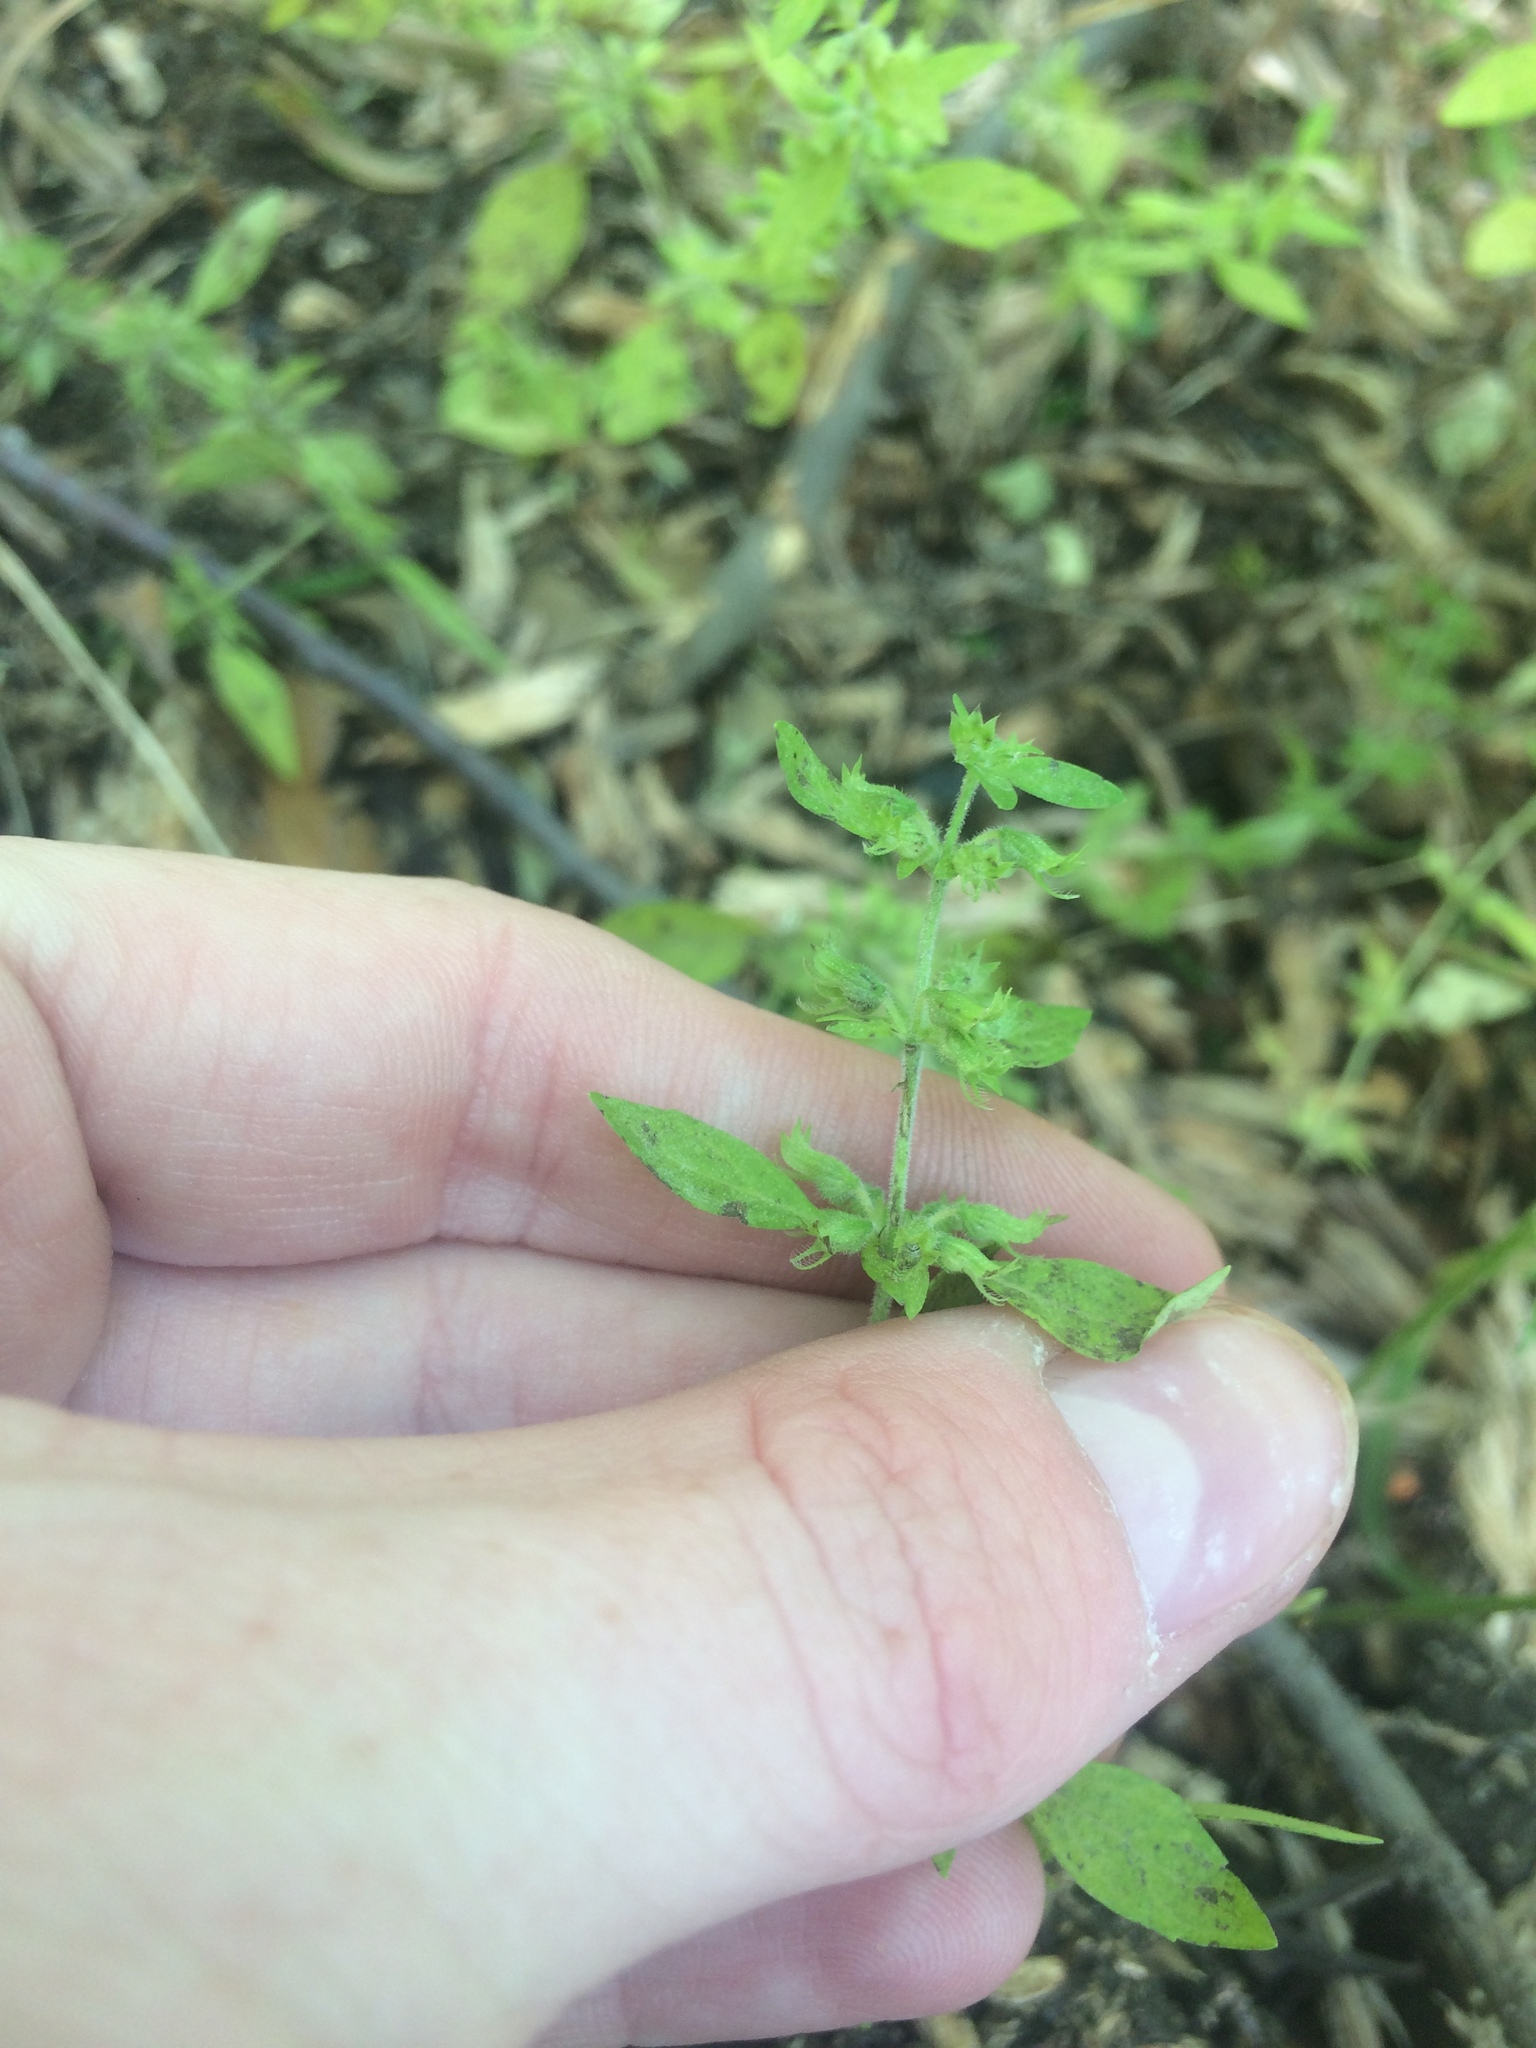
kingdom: Plantae
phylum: Tracheophyta
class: Magnoliopsida
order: Lamiales
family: Lamiaceae
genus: Hedeoma
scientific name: Hedeoma pulegioides
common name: American false pennyroyal
